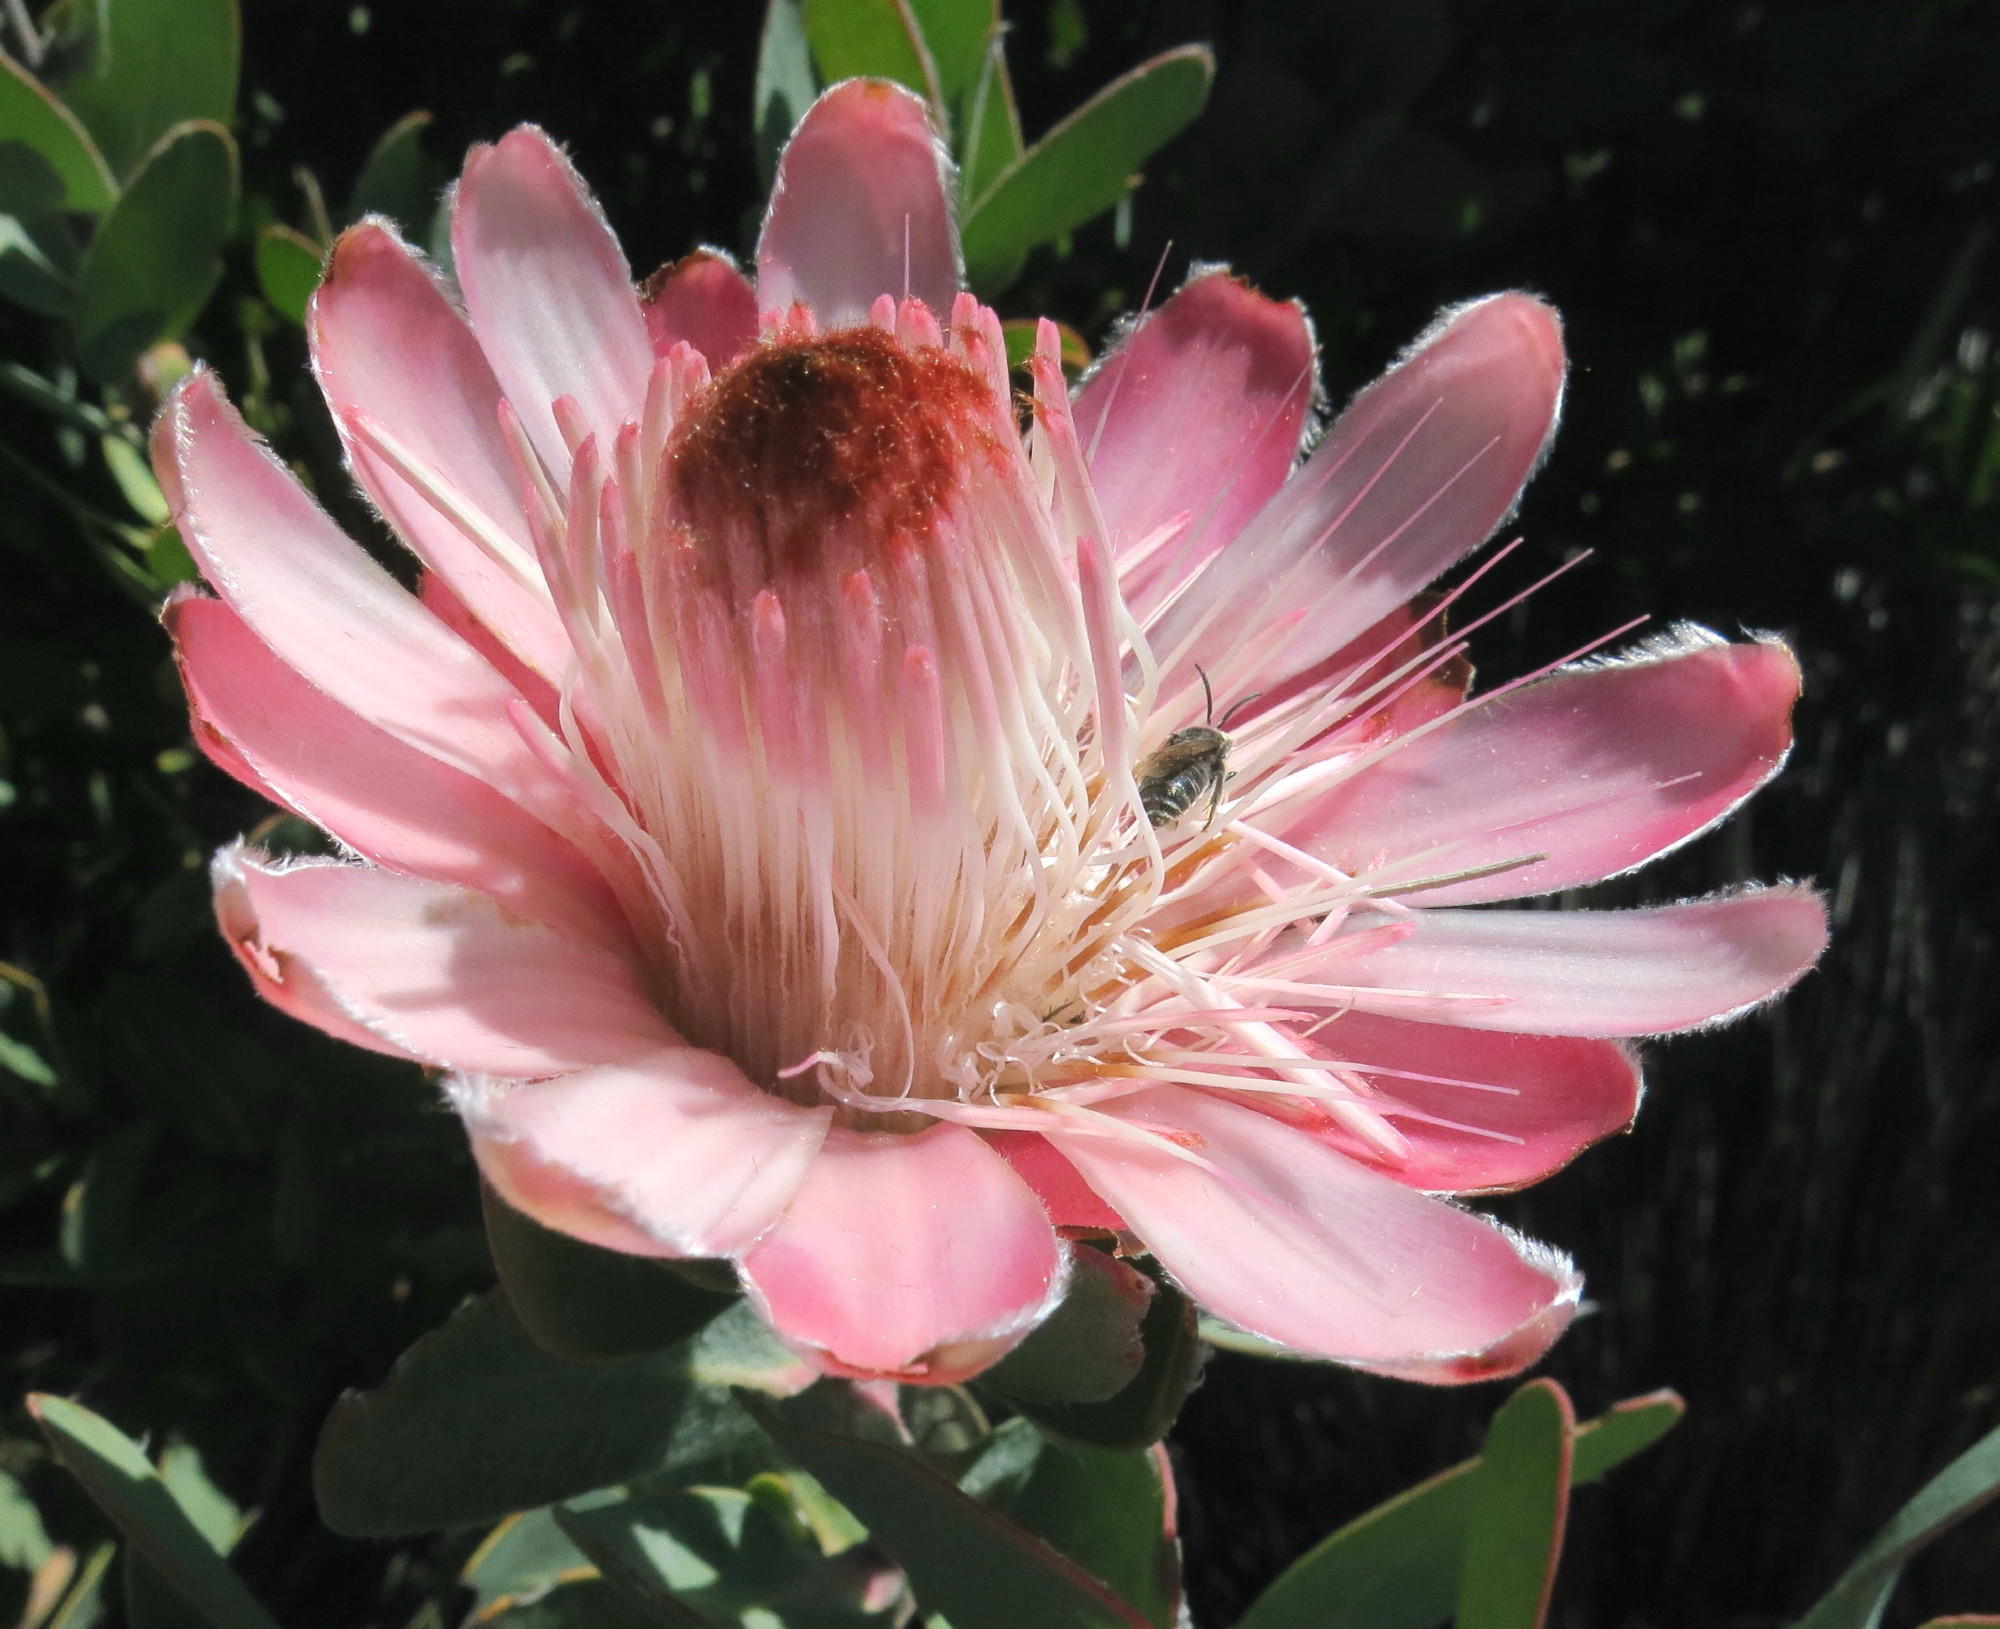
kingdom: Plantae
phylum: Tracheophyta
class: Magnoliopsida
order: Proteales
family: Proteaceae
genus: Protea
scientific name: Protea punctata
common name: Water sugarbush
